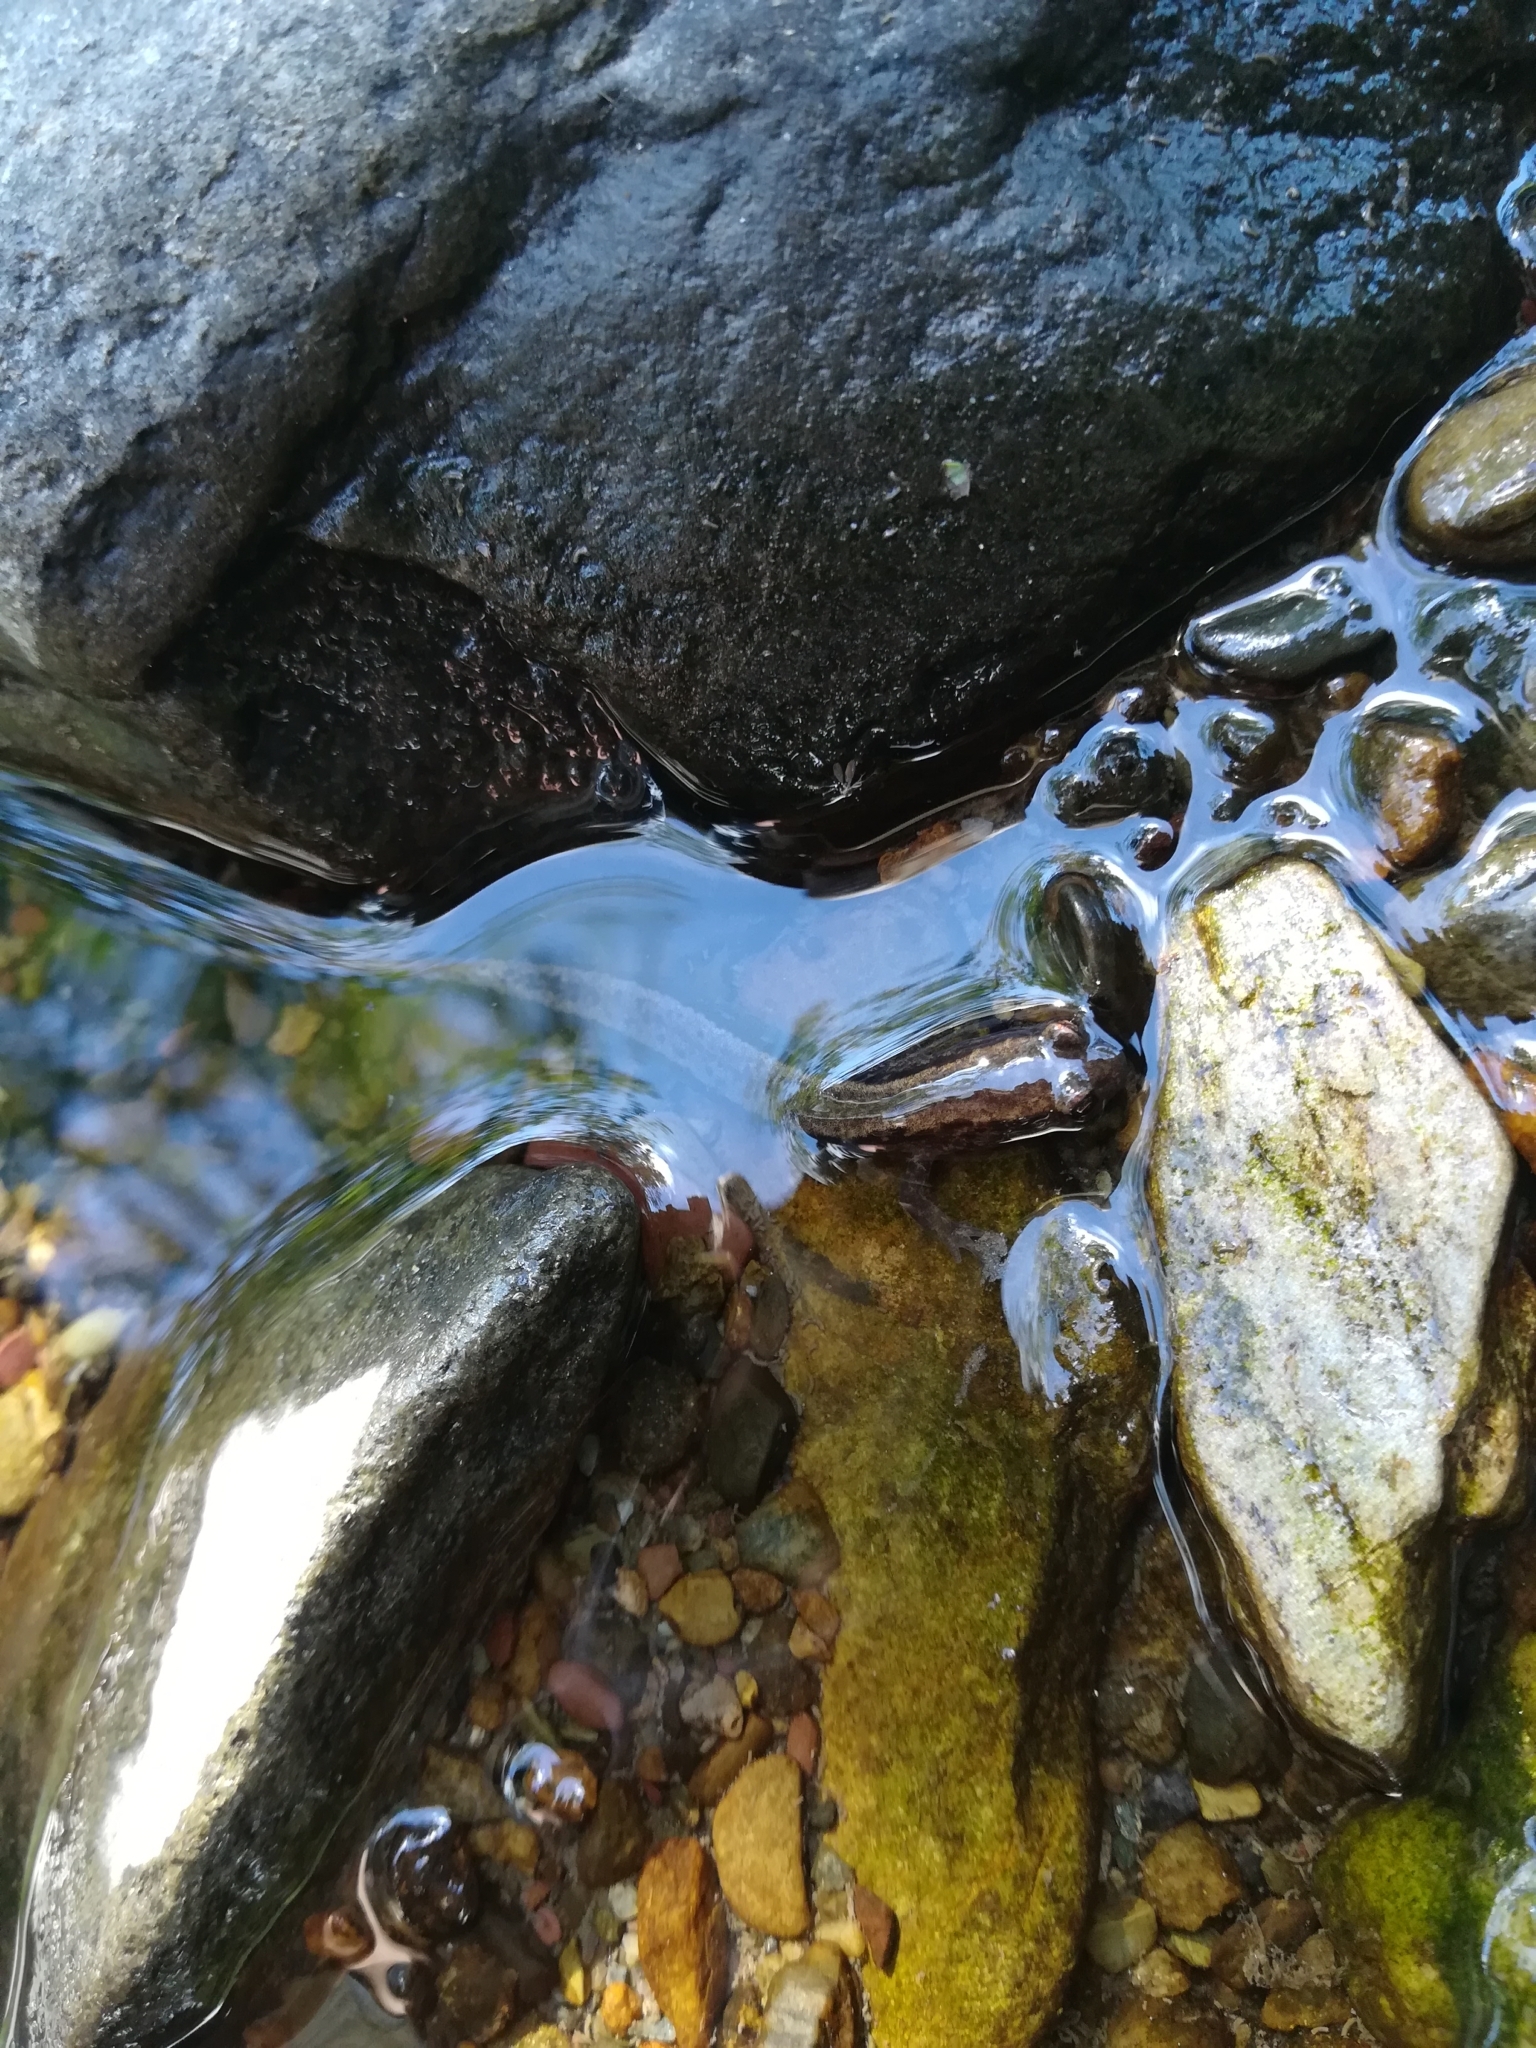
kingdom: Animalia
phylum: Chordata
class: Amphibia
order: Caudata
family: Plethodontidae
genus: Eurycea
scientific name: Eurycea bislineata
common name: Northern two-lined salamander
